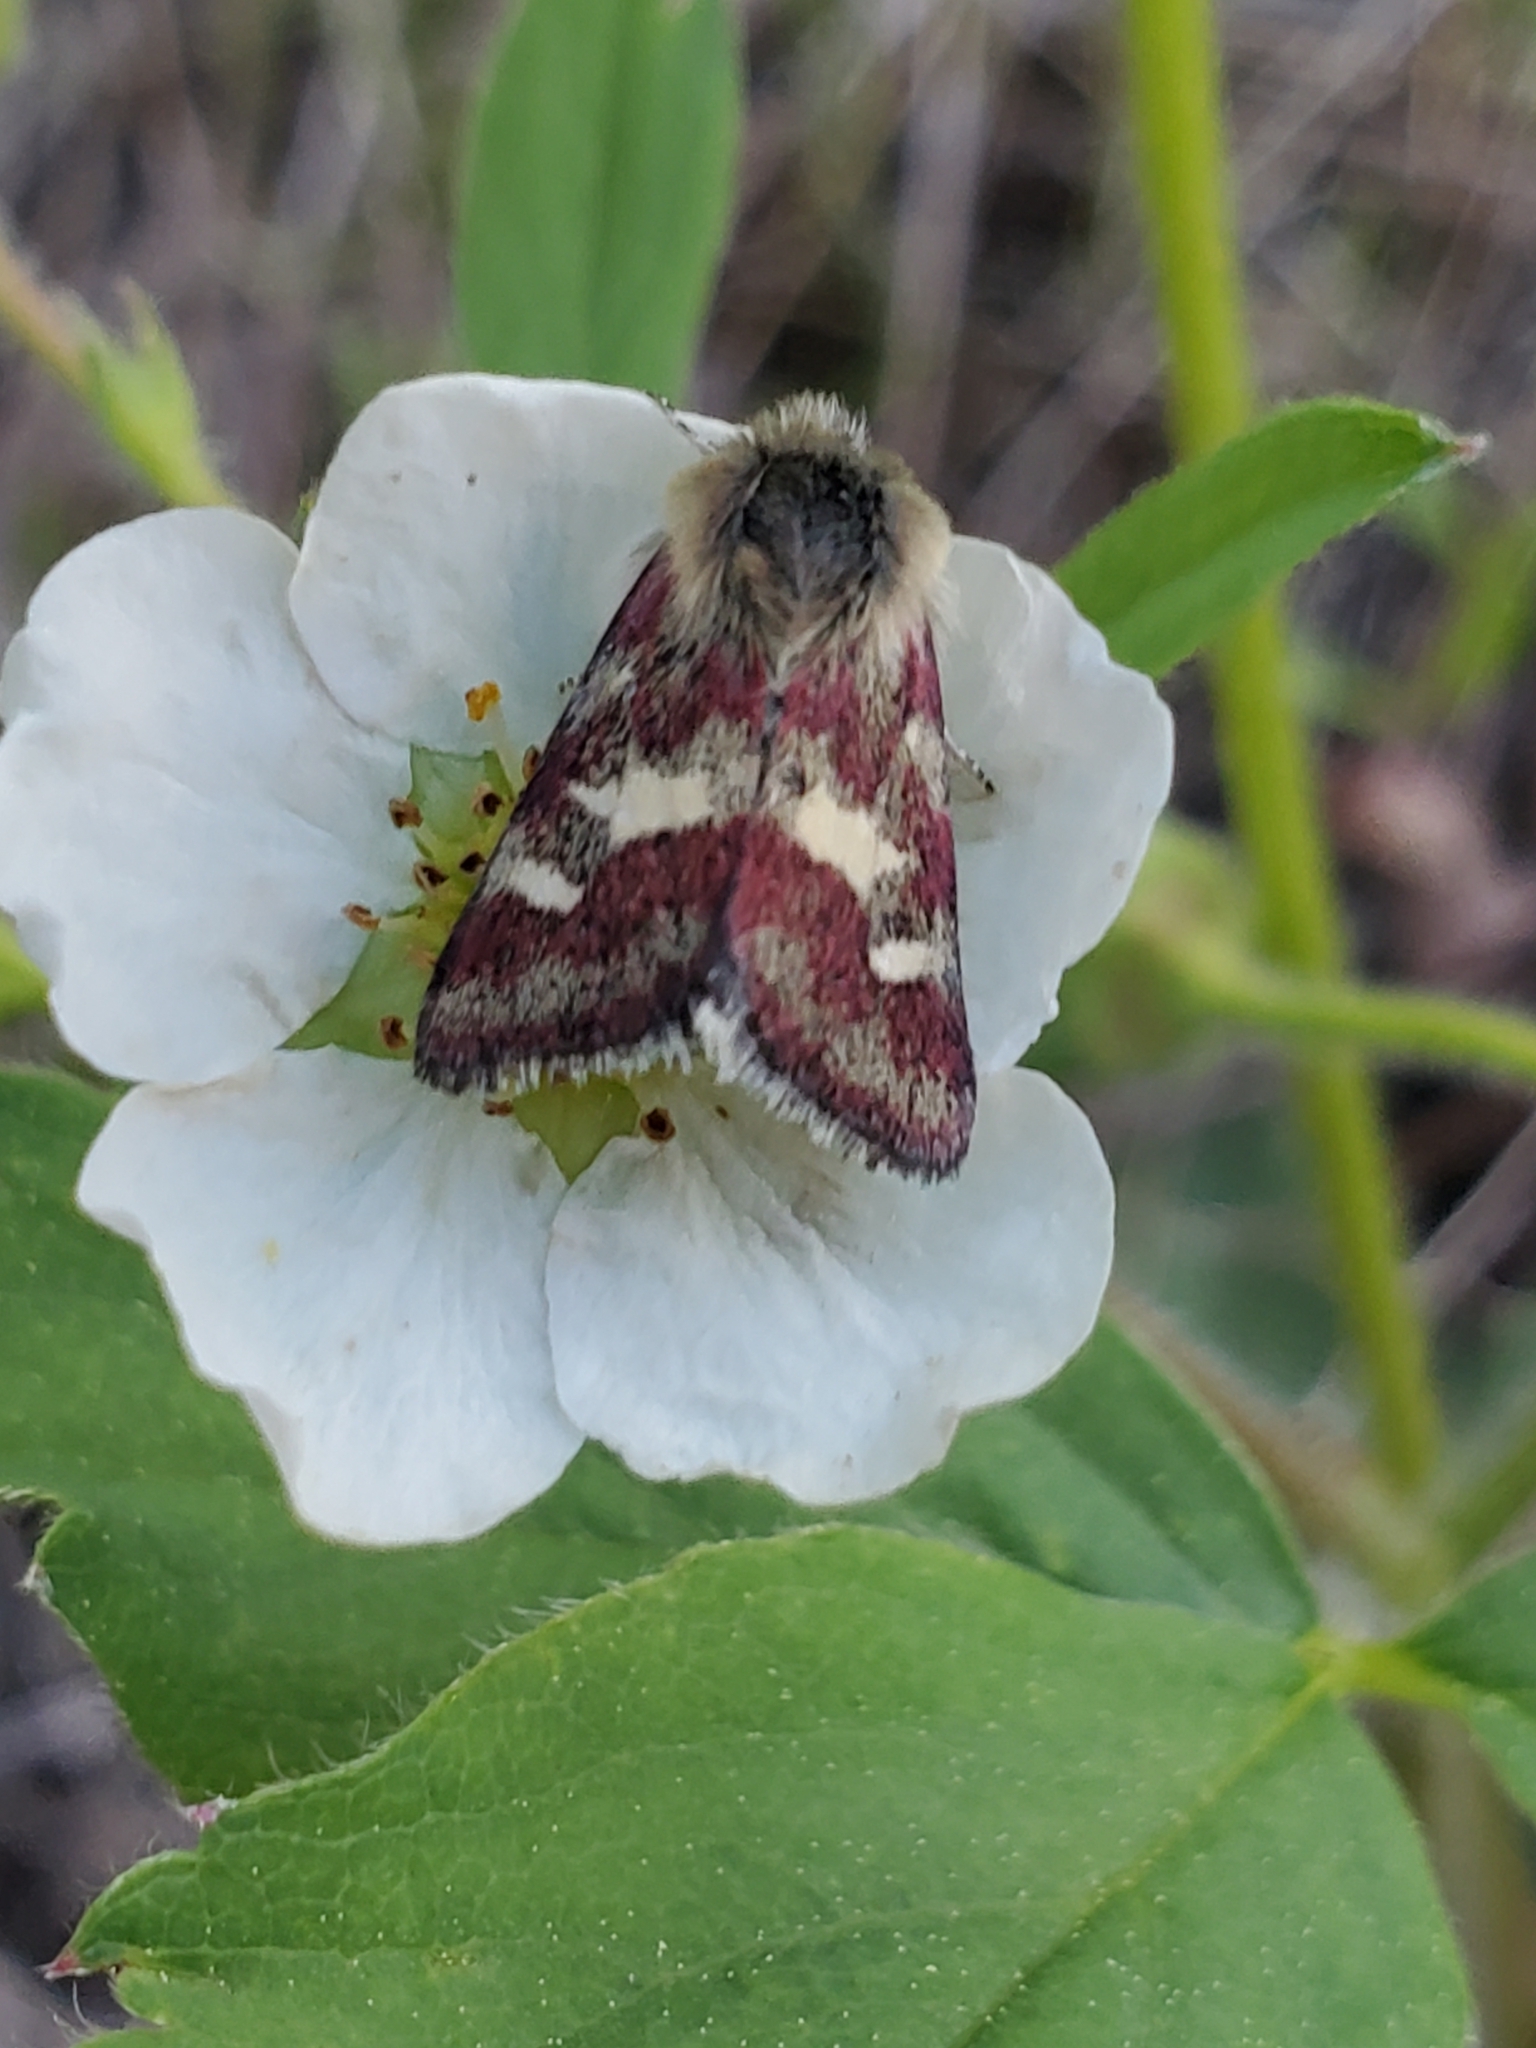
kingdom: Animalia
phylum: Arthropoda
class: Insecta
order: Lepidoptera
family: Noctuidae
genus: Eutricopis
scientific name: Eutricopis nexilis
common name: White-spotted midget moth
